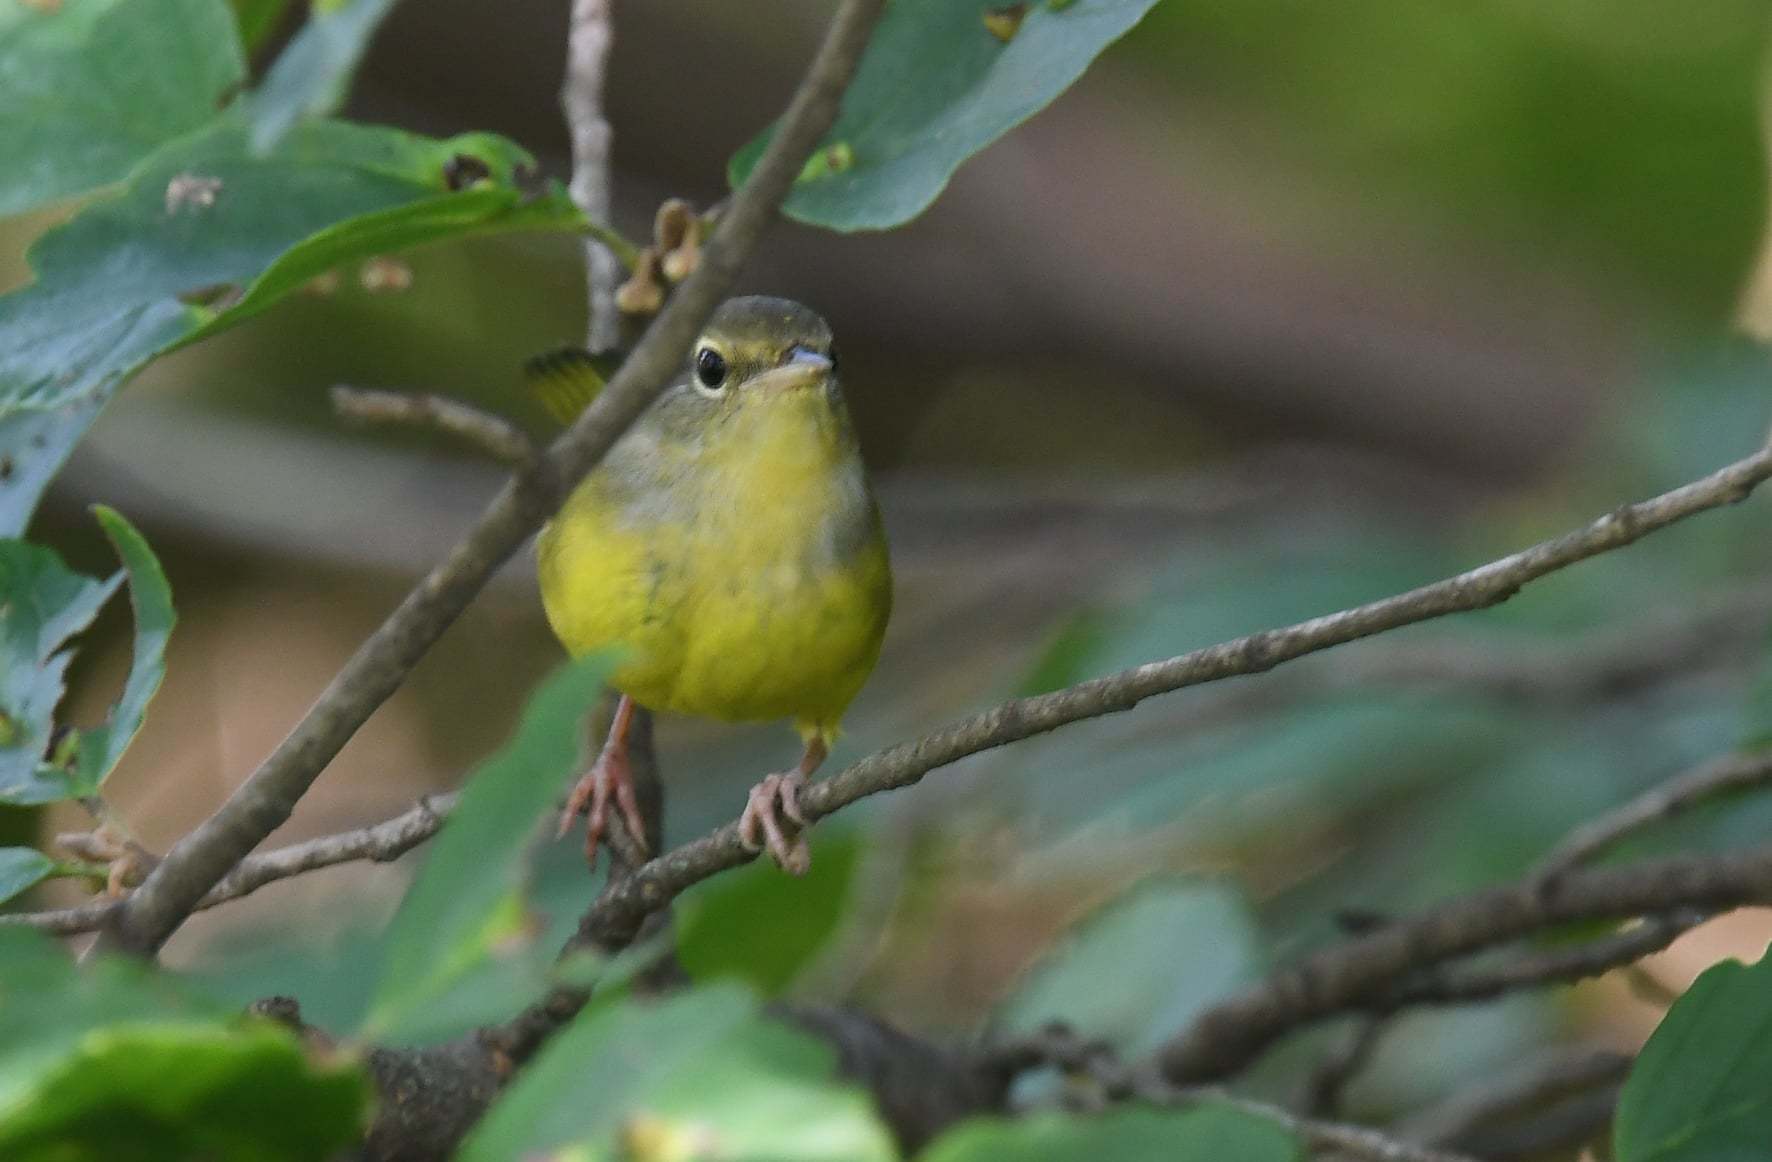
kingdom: Animalia
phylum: Chordata
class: Aves
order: Passeriformes
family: Parulidae
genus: Geothlypis
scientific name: Geothlypis philadelphia
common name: Mourning warbler
